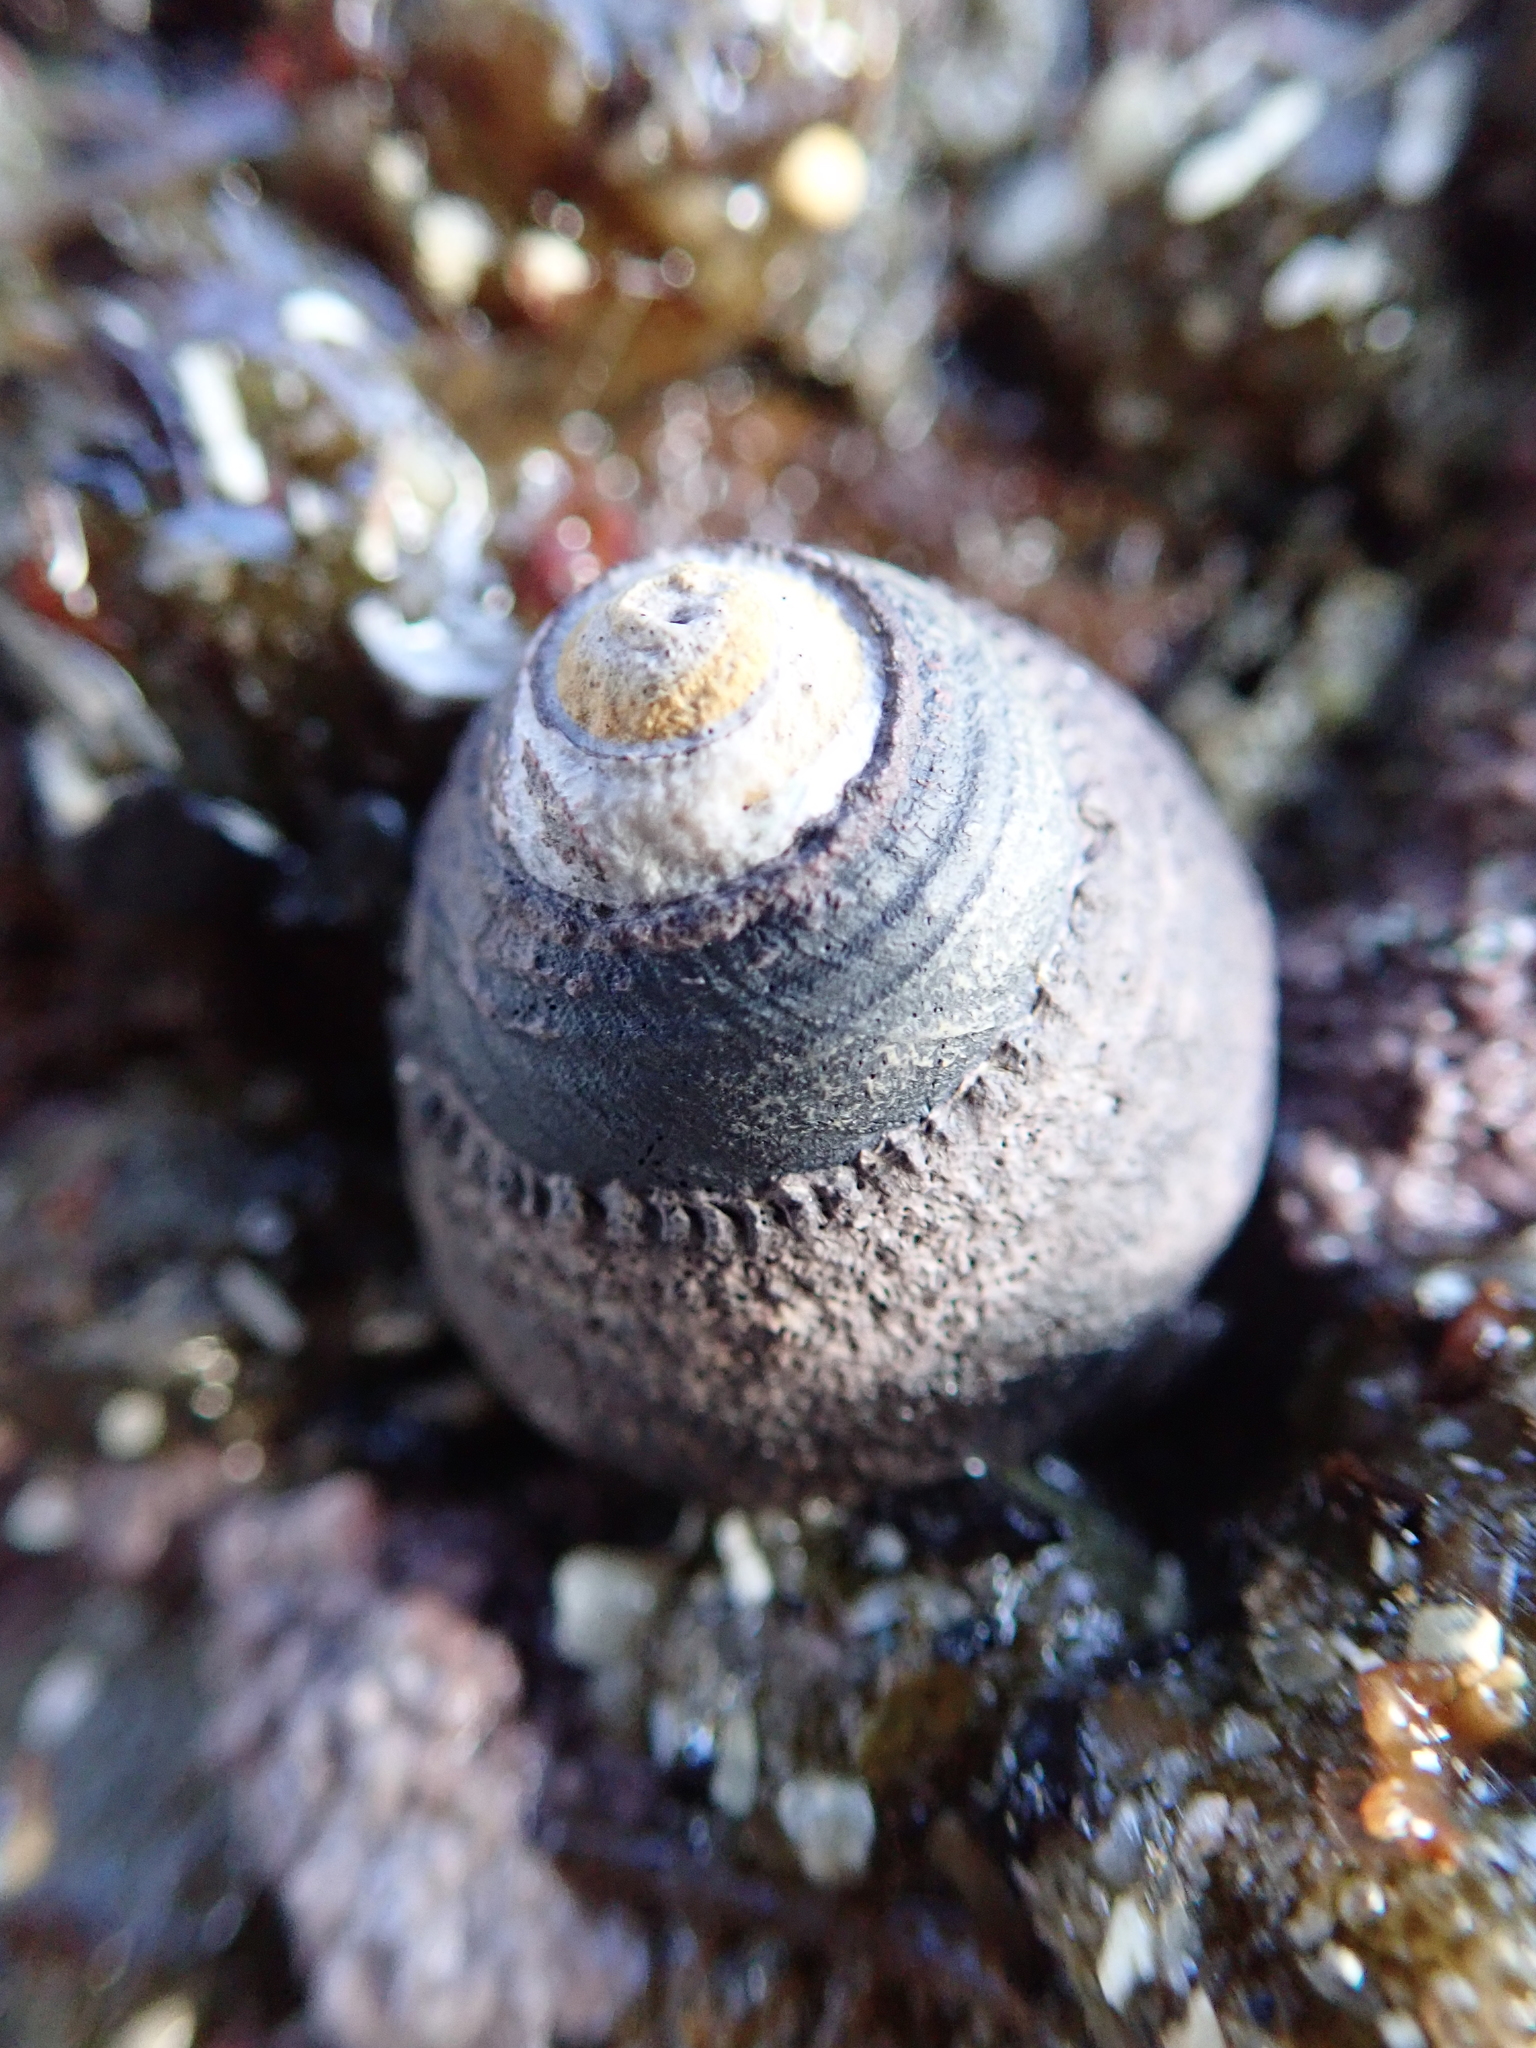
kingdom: Animalia
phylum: Mollusca
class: Gastropoda
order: Trochida
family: Tegulidae
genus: Tegula
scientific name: Tegula funebralis
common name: Black tegula
